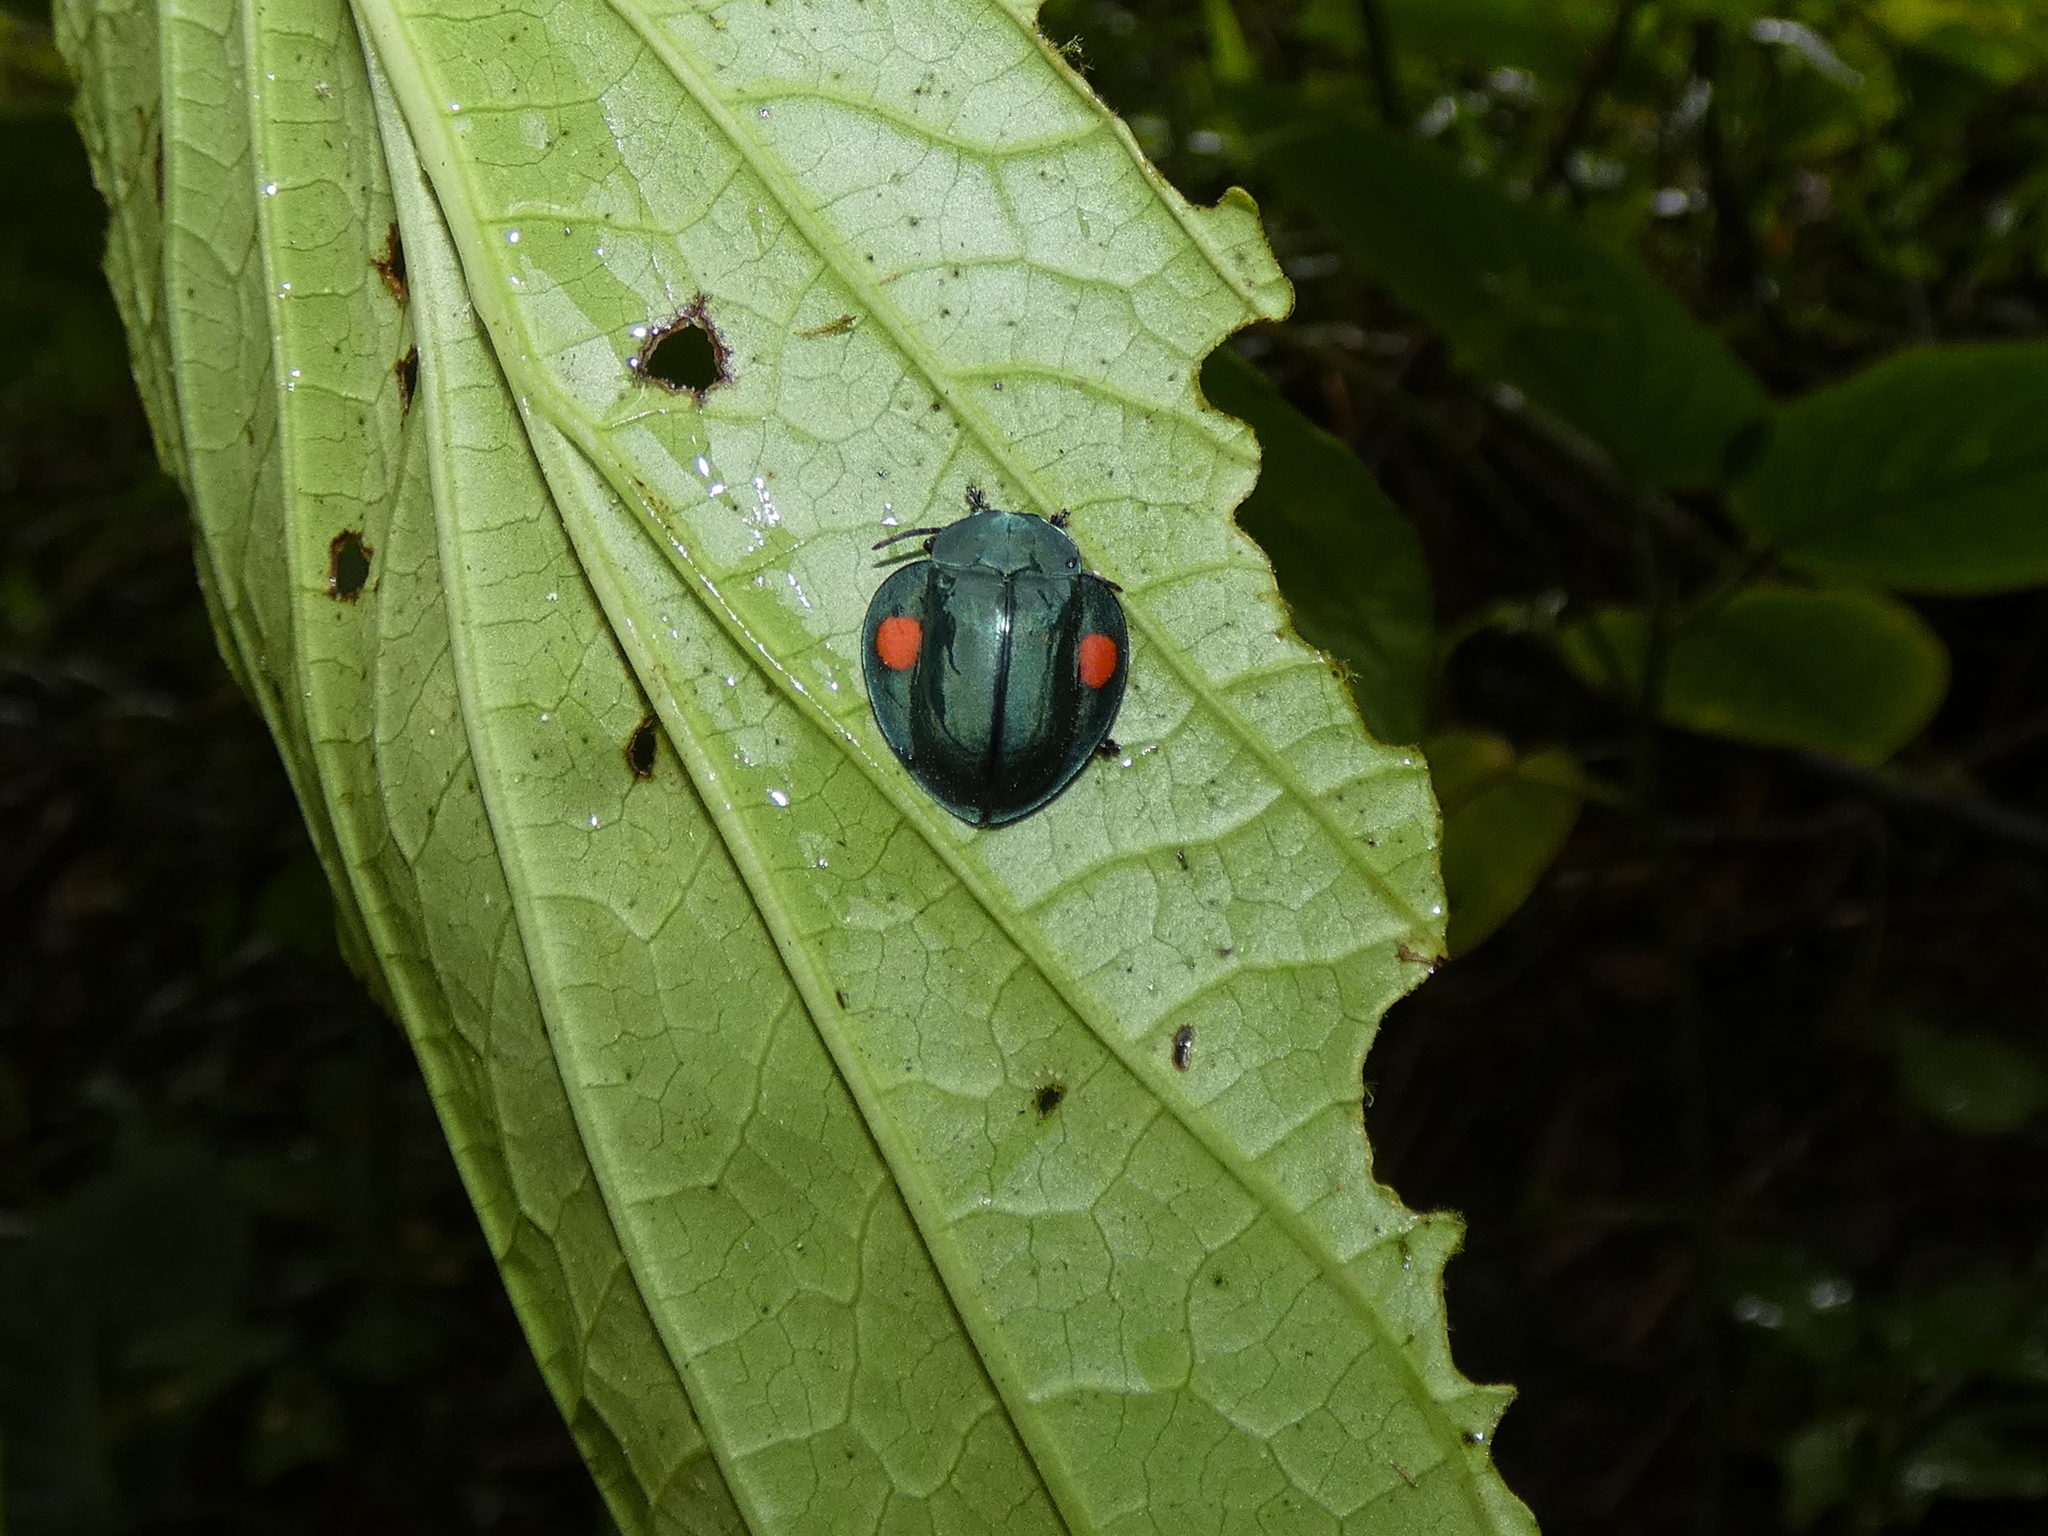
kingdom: Animalia
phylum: Arthropoda
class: Insecta
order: Coleoptera
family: Chrysomelidae
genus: Stolas
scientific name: Stolas
